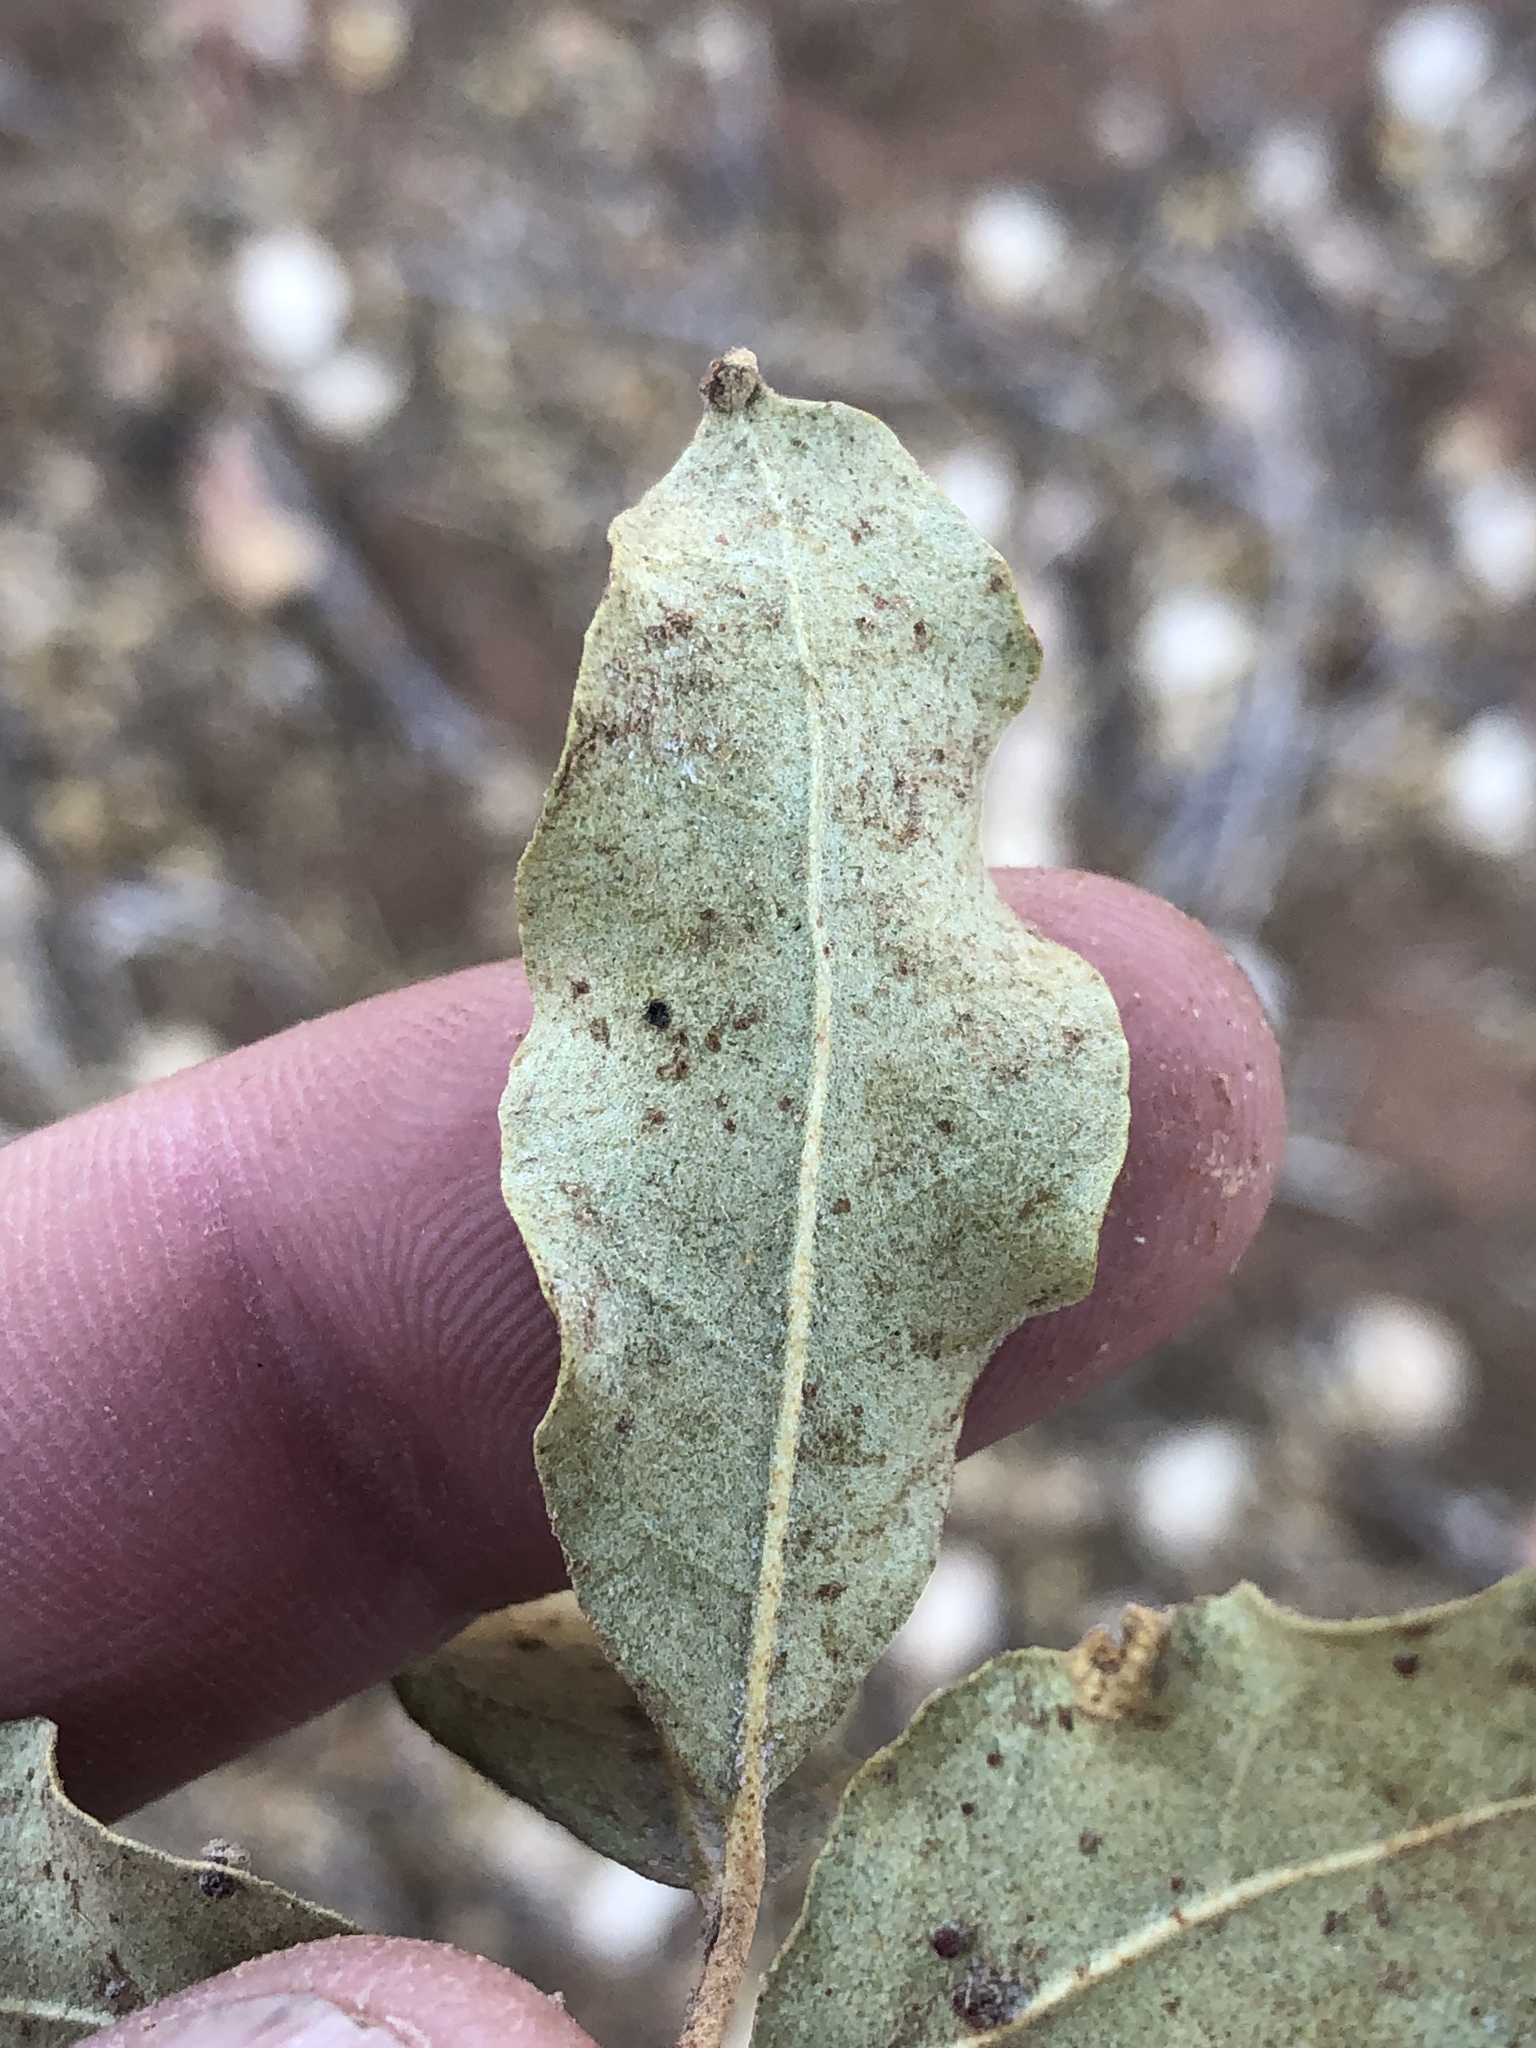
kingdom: Plantae
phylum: Tracheophyta
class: Magnoliopsida
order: Myrtales
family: Combretaceae
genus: Combretum
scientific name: Combretum imberbe
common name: Leadwood
